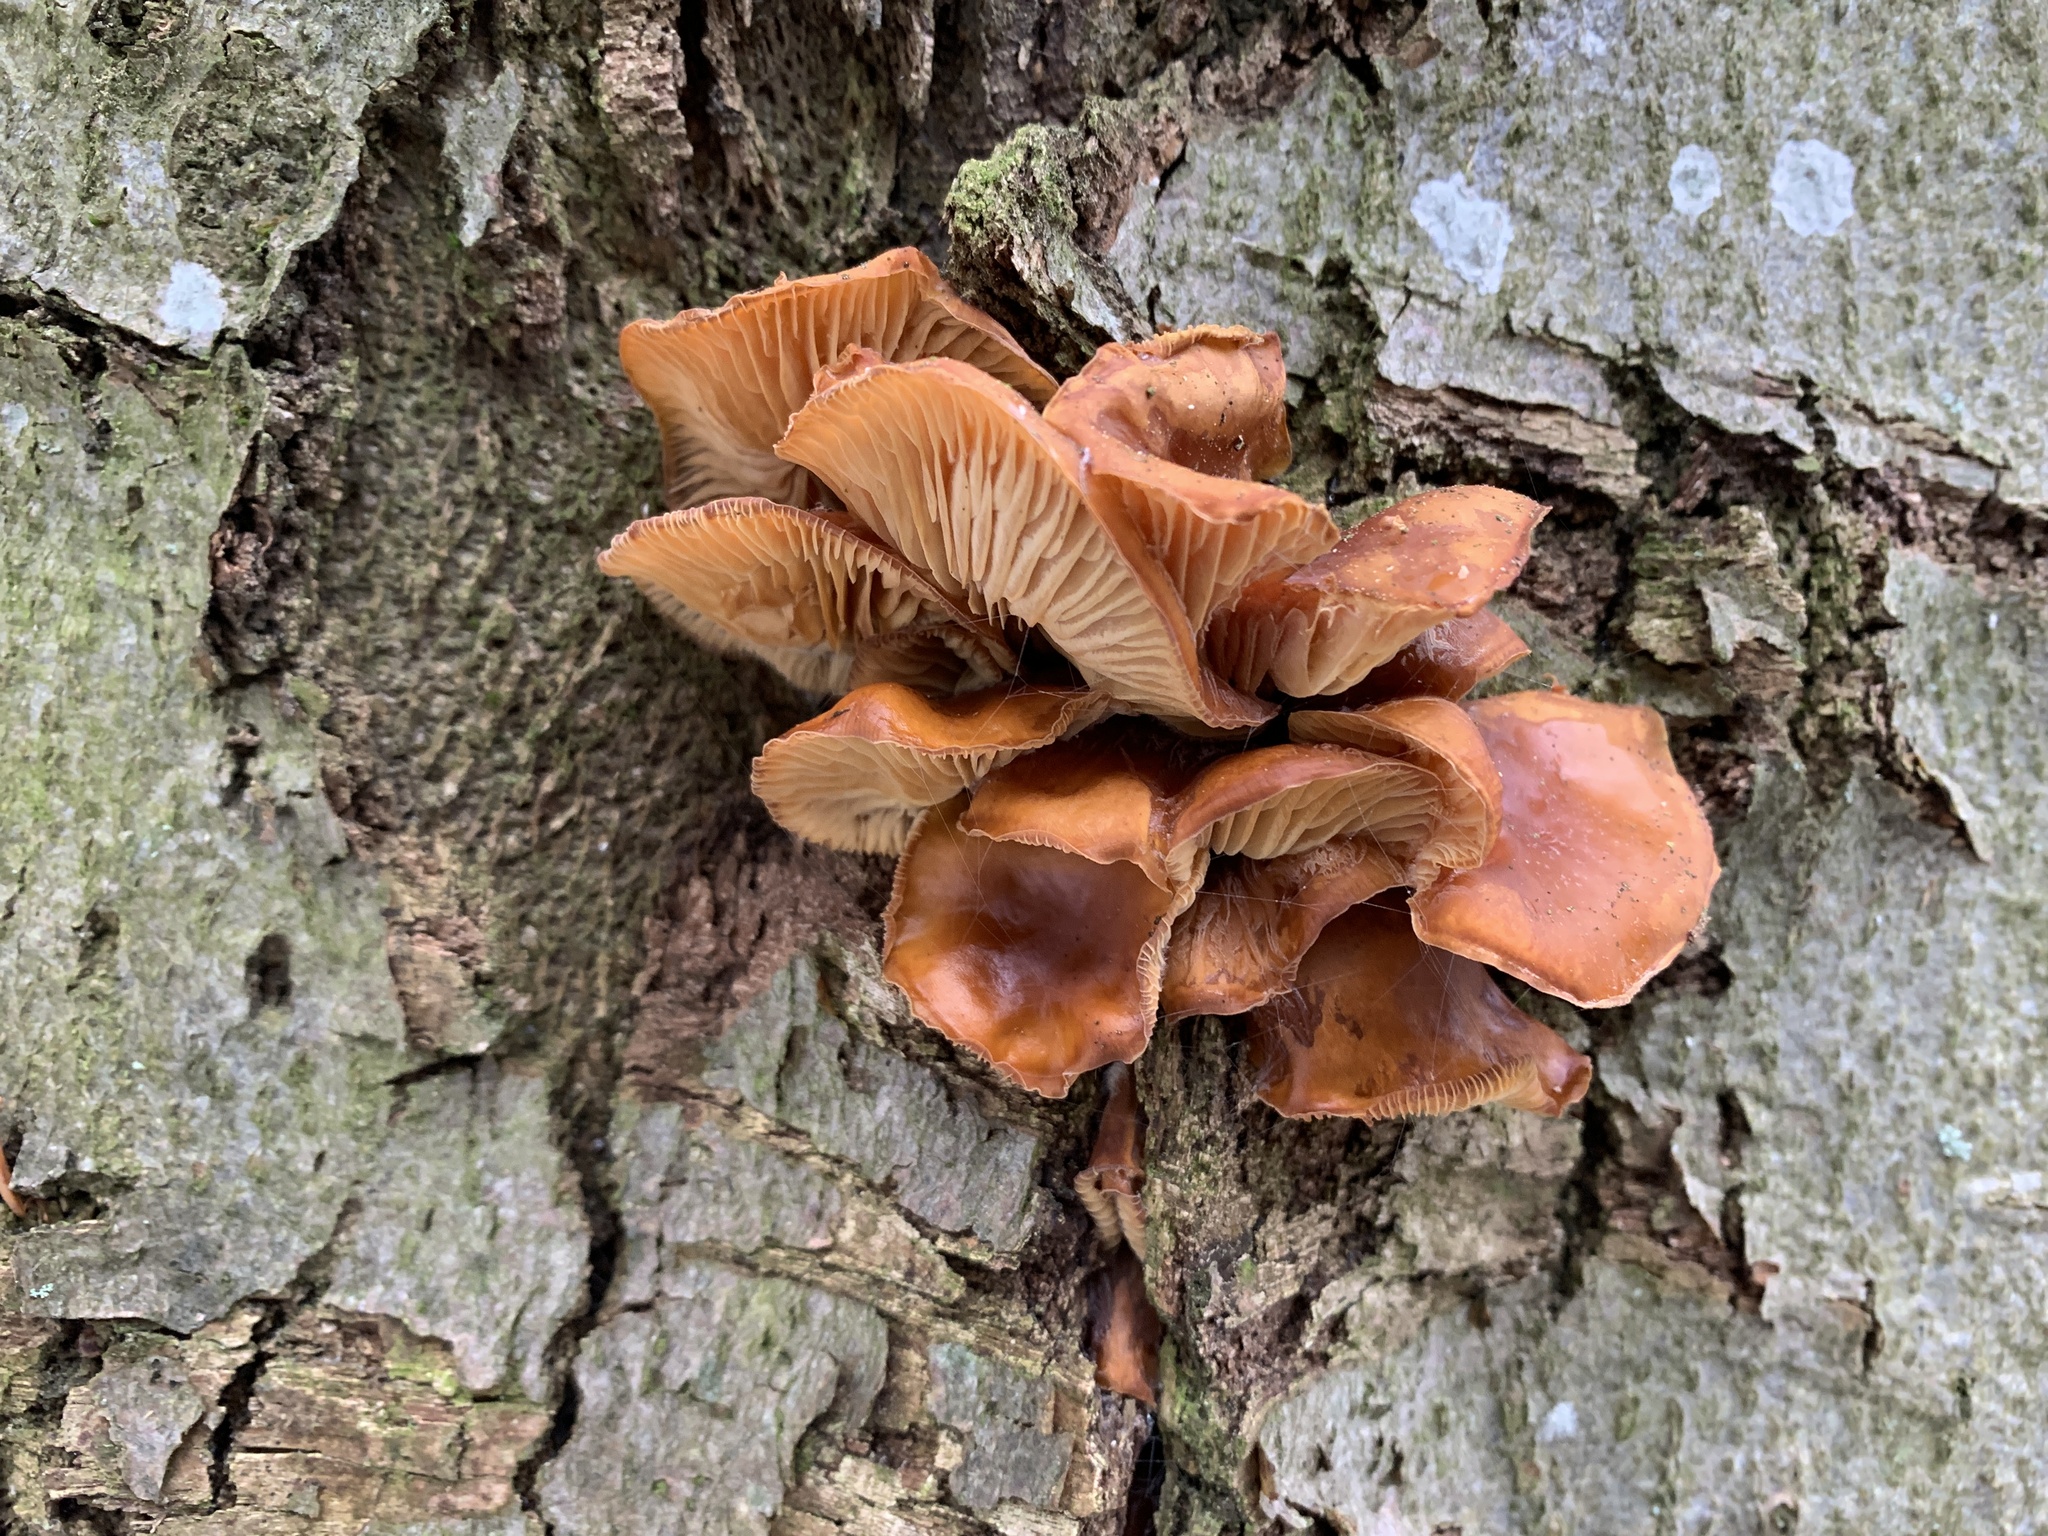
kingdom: Fungi
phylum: Basidiomycota
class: Agaricomycetes
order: Agaricales
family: Physalacriaceae
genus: Flammulina
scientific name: Flammulina
